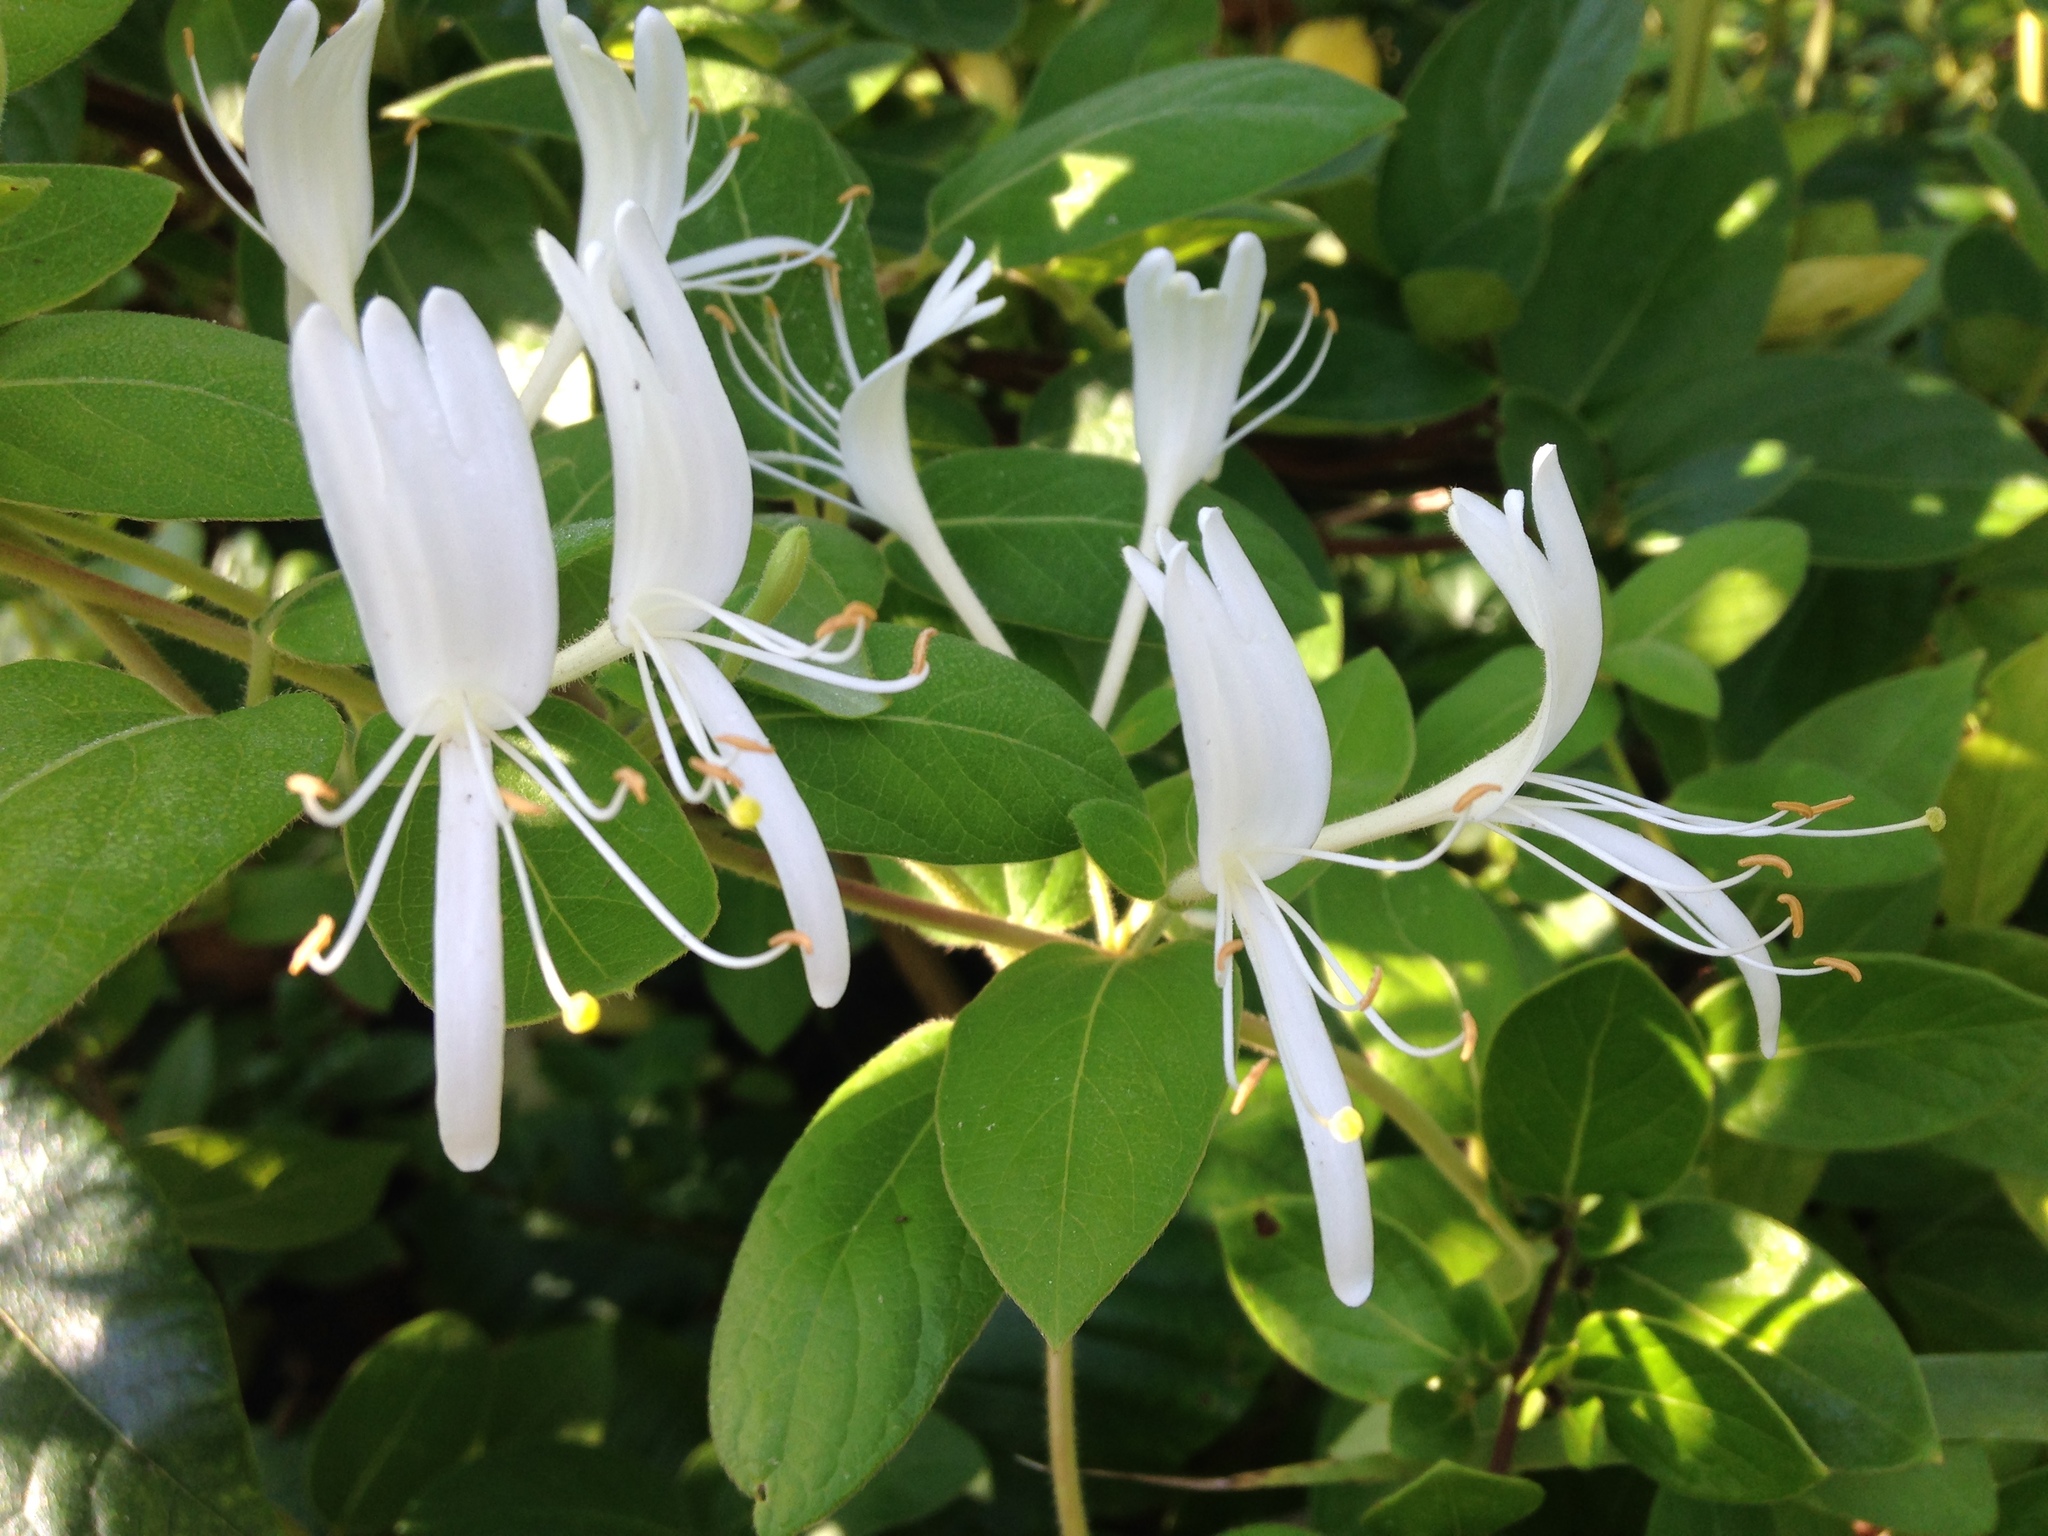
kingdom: Plantae
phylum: Tracheophyta
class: Magnoliopsida
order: Dipsacales
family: Caprifoliaceae
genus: Lonicera
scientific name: Lonicera japonica
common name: Japanese honeysuckle
